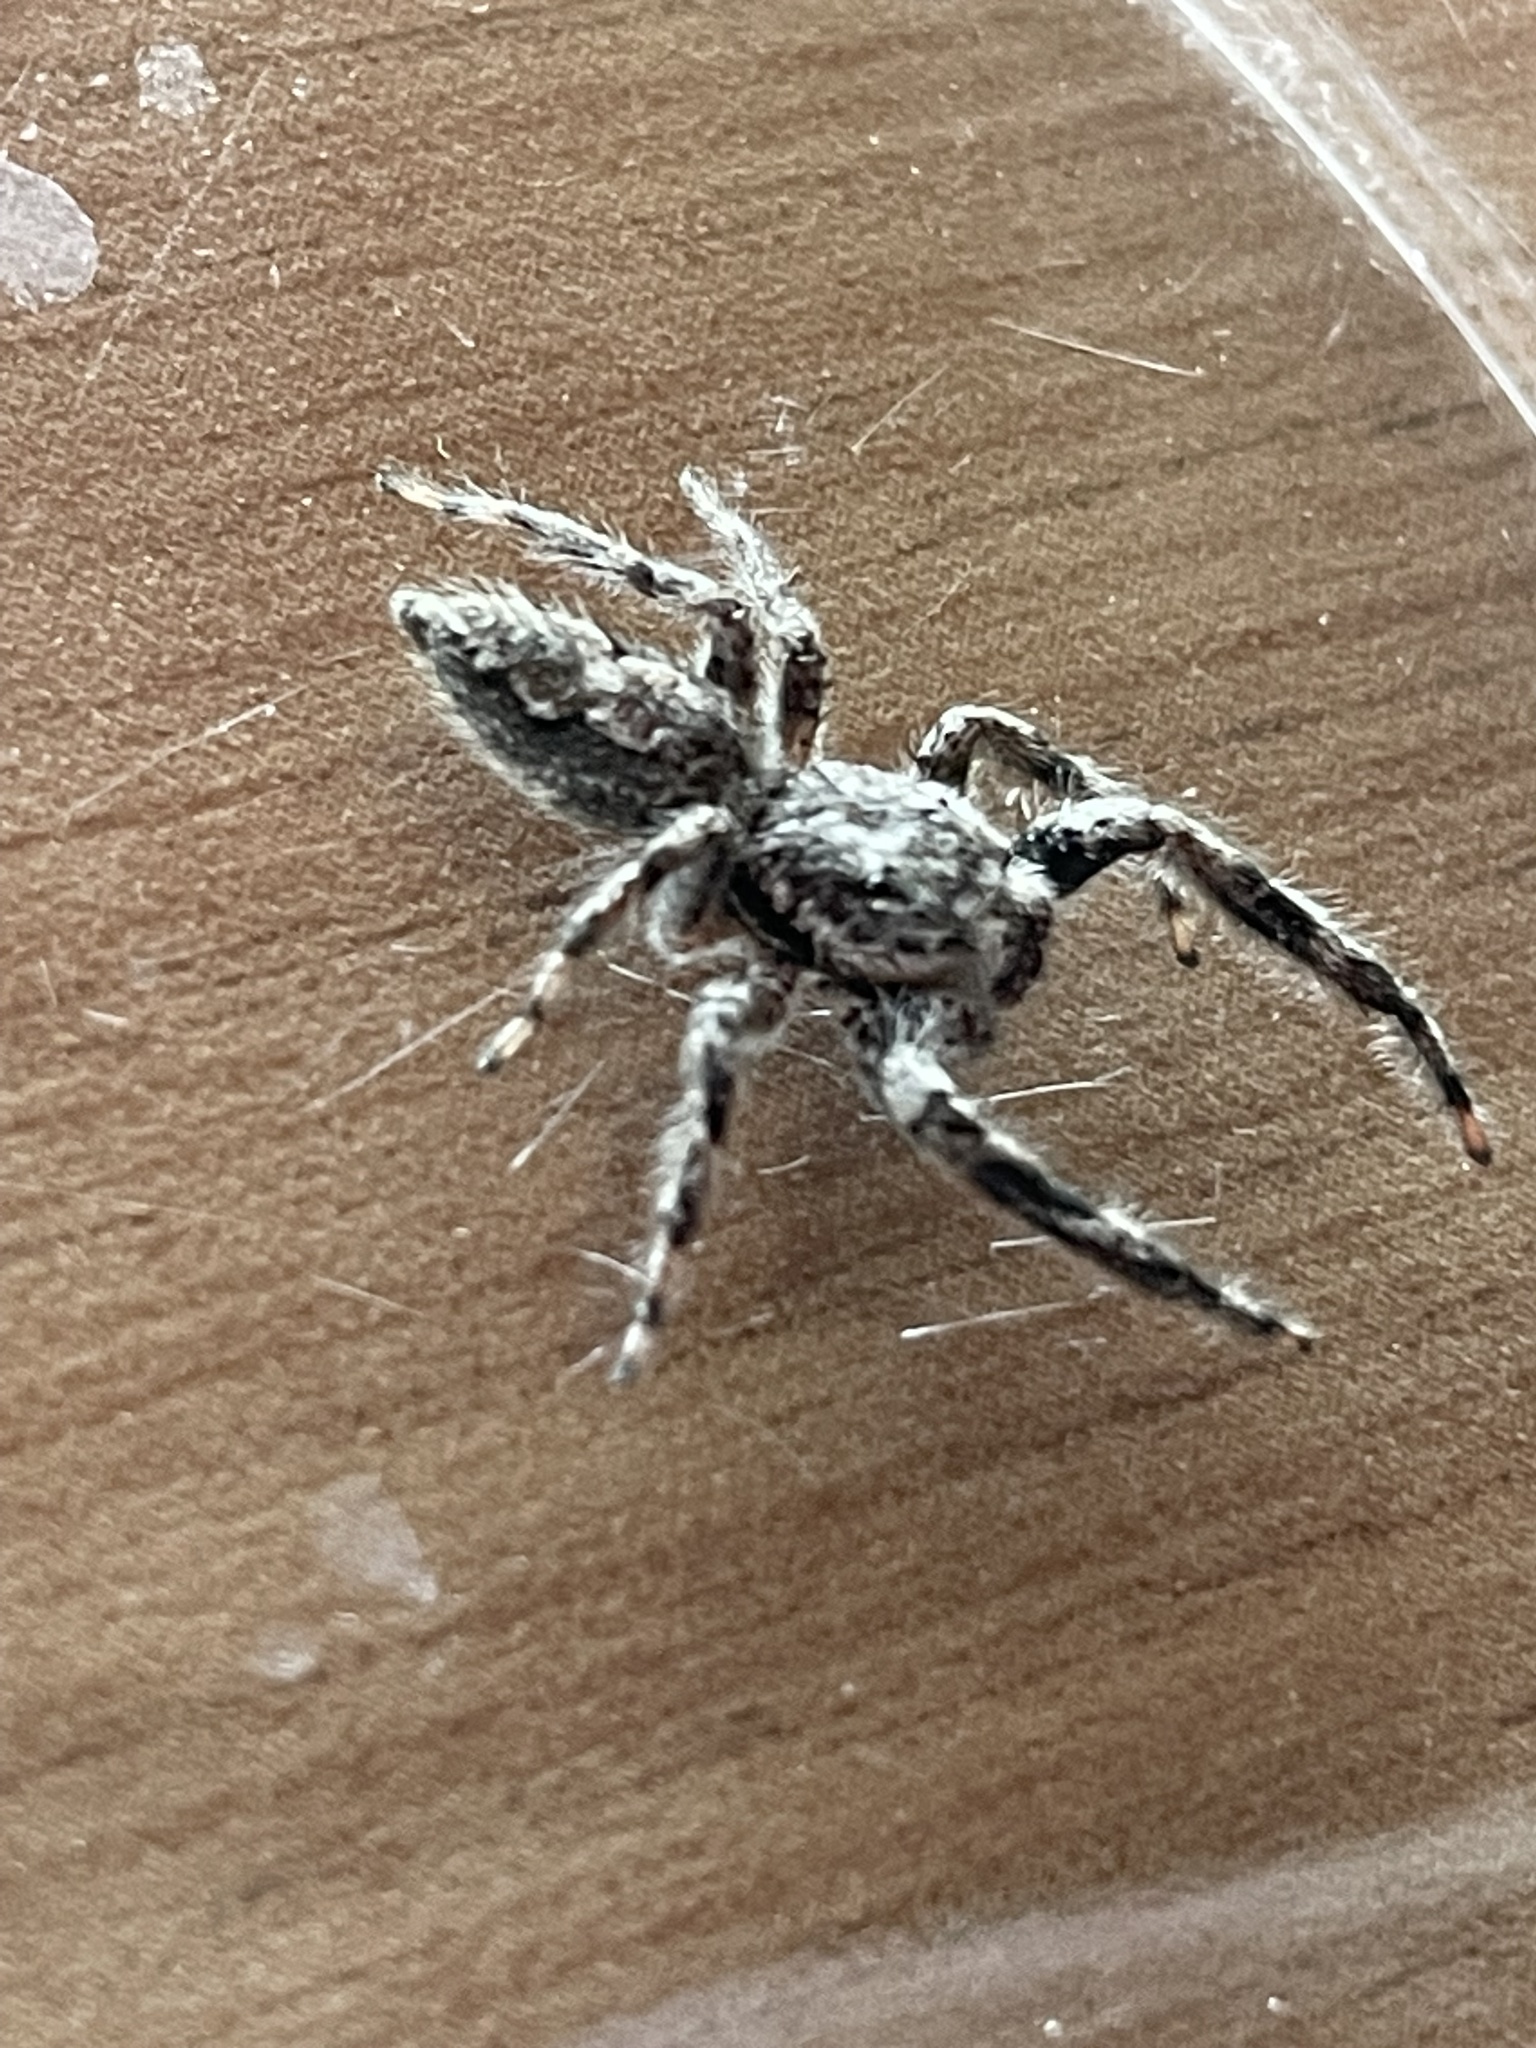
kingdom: Animalia
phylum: Arthropoda
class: Arachnida
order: Araneae
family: Salticidae
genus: Platycryptus
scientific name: Platycryptus undatus
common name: Tan jumping spider
